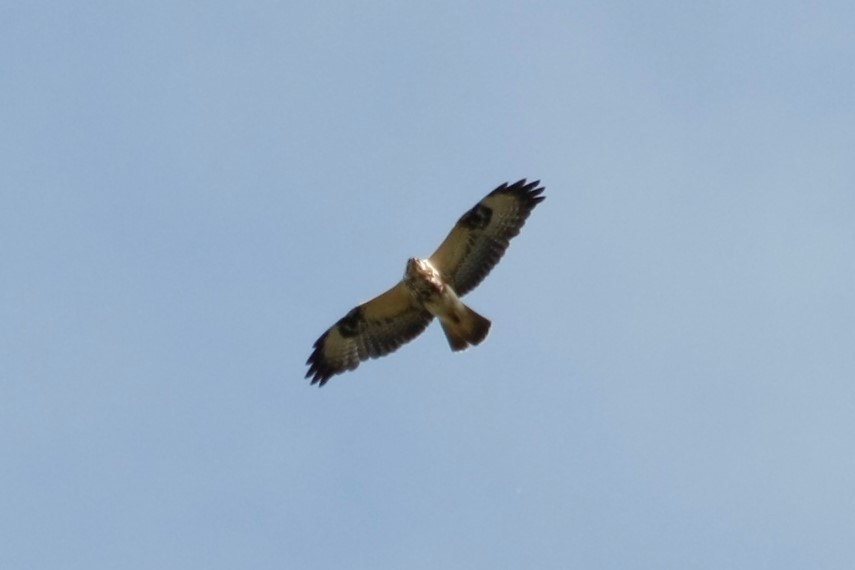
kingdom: Animalia
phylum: Chordata
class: Aves
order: Accipitriformes
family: Accipitridae
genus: Buteo
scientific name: Buteo buteo
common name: Common buzzard
